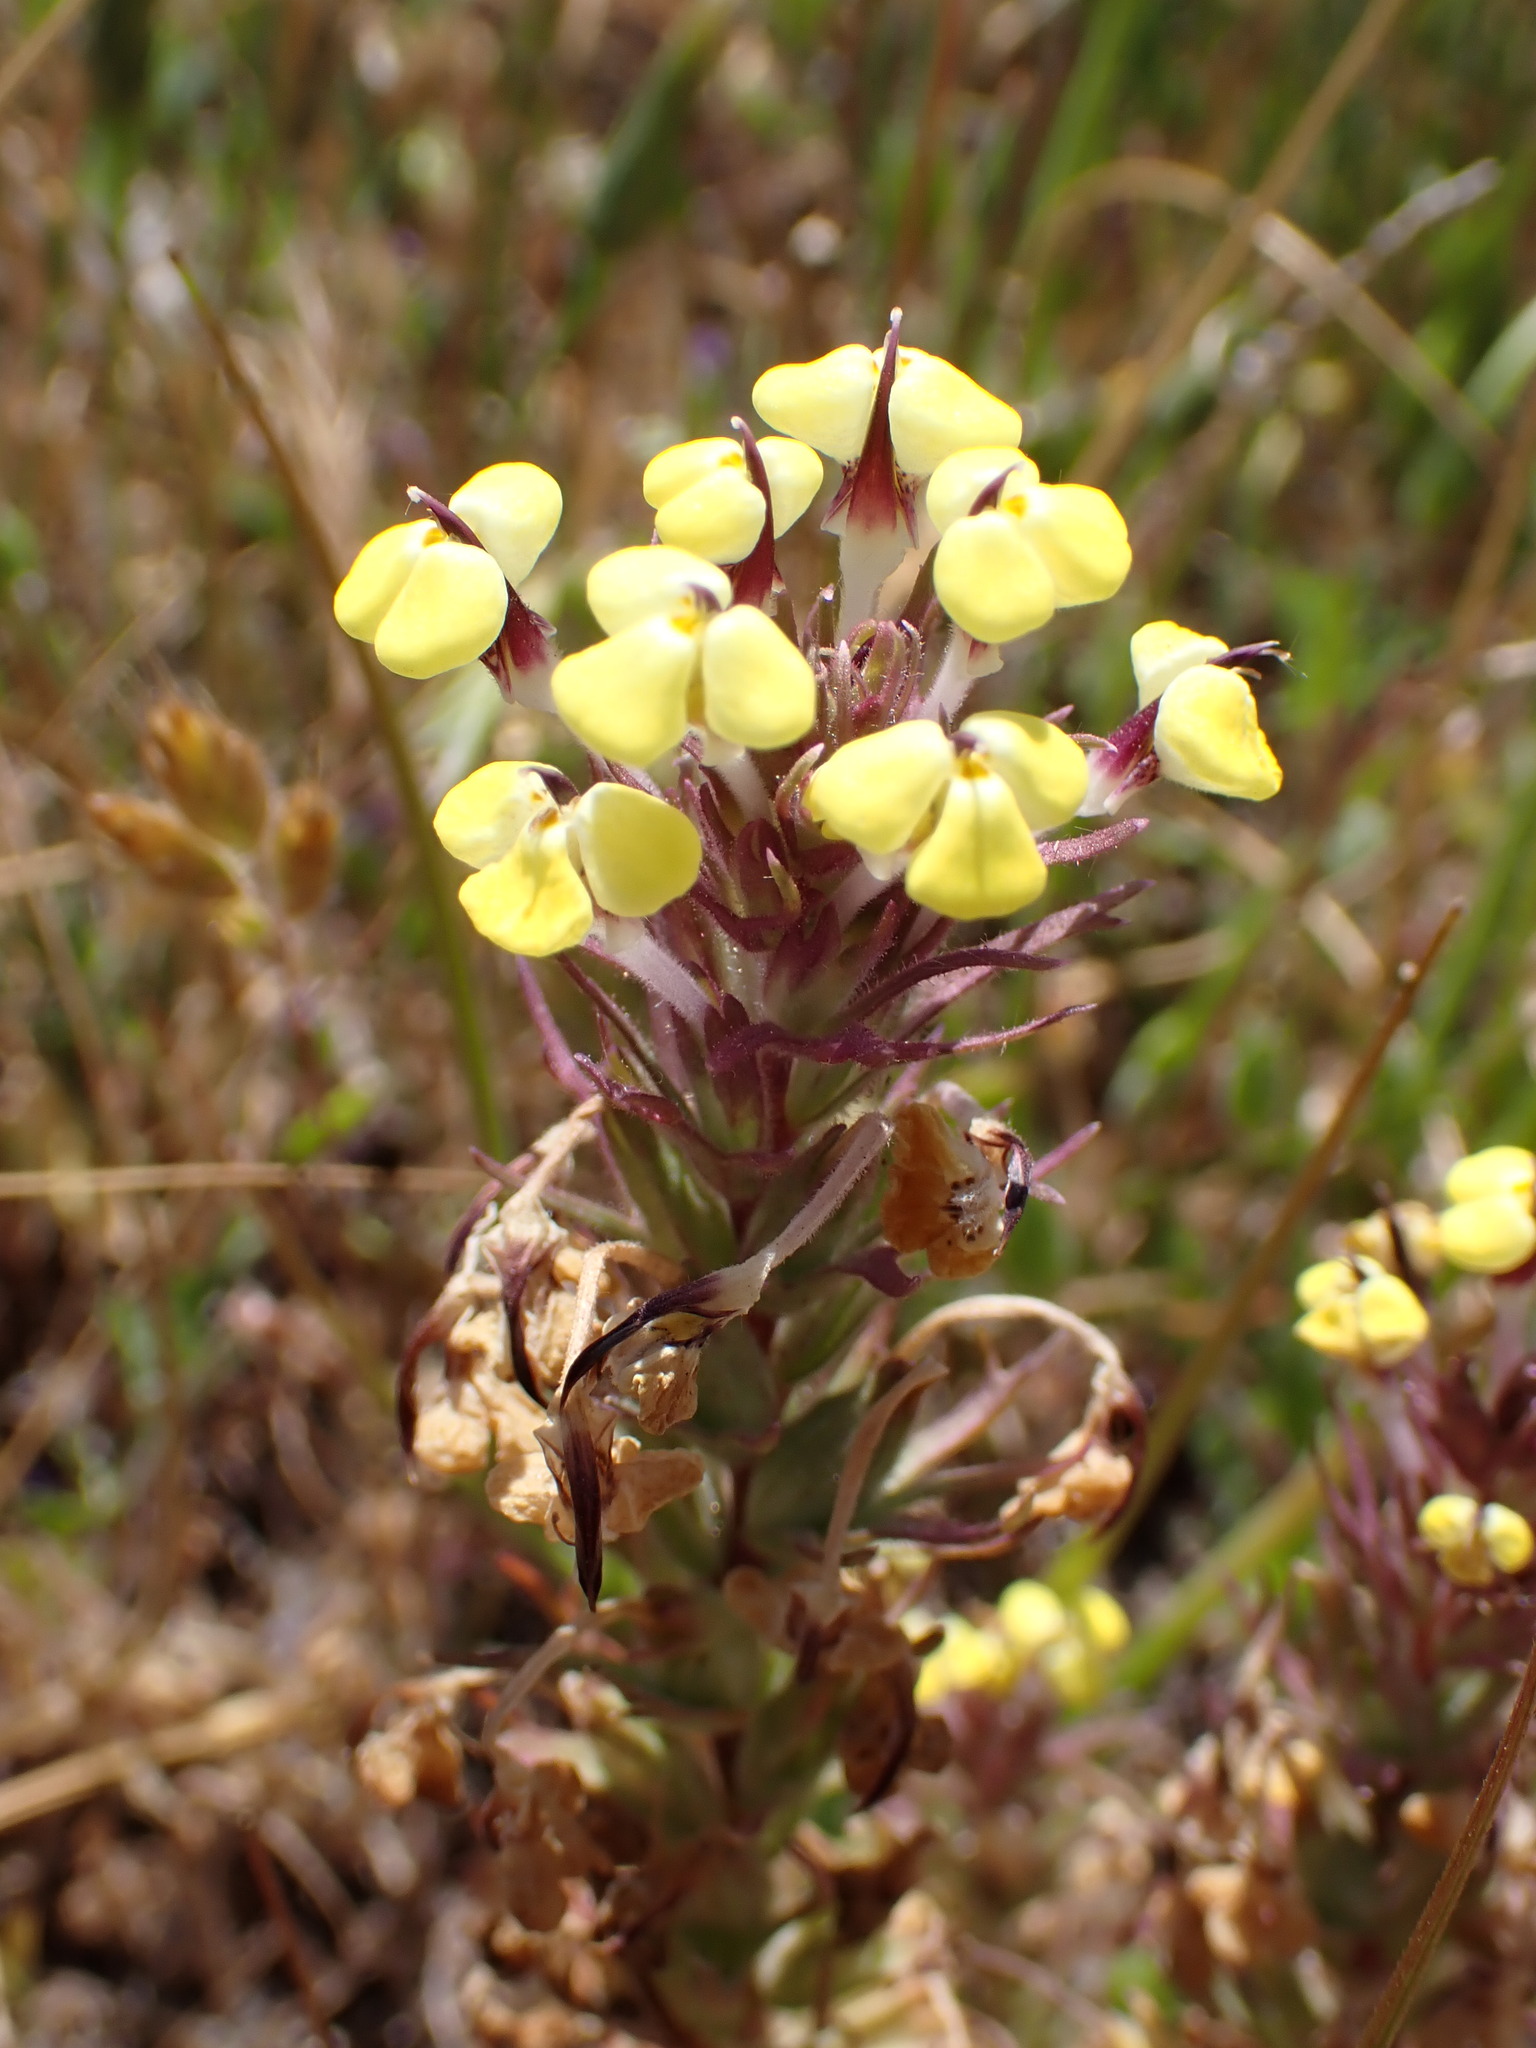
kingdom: Plantae
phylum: Tracheophyta
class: Magnoliopsida
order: Lamiales
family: Orobanchaceae
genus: Triphysaria
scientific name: Triphysaria eriantha
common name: Johnny-tuck
